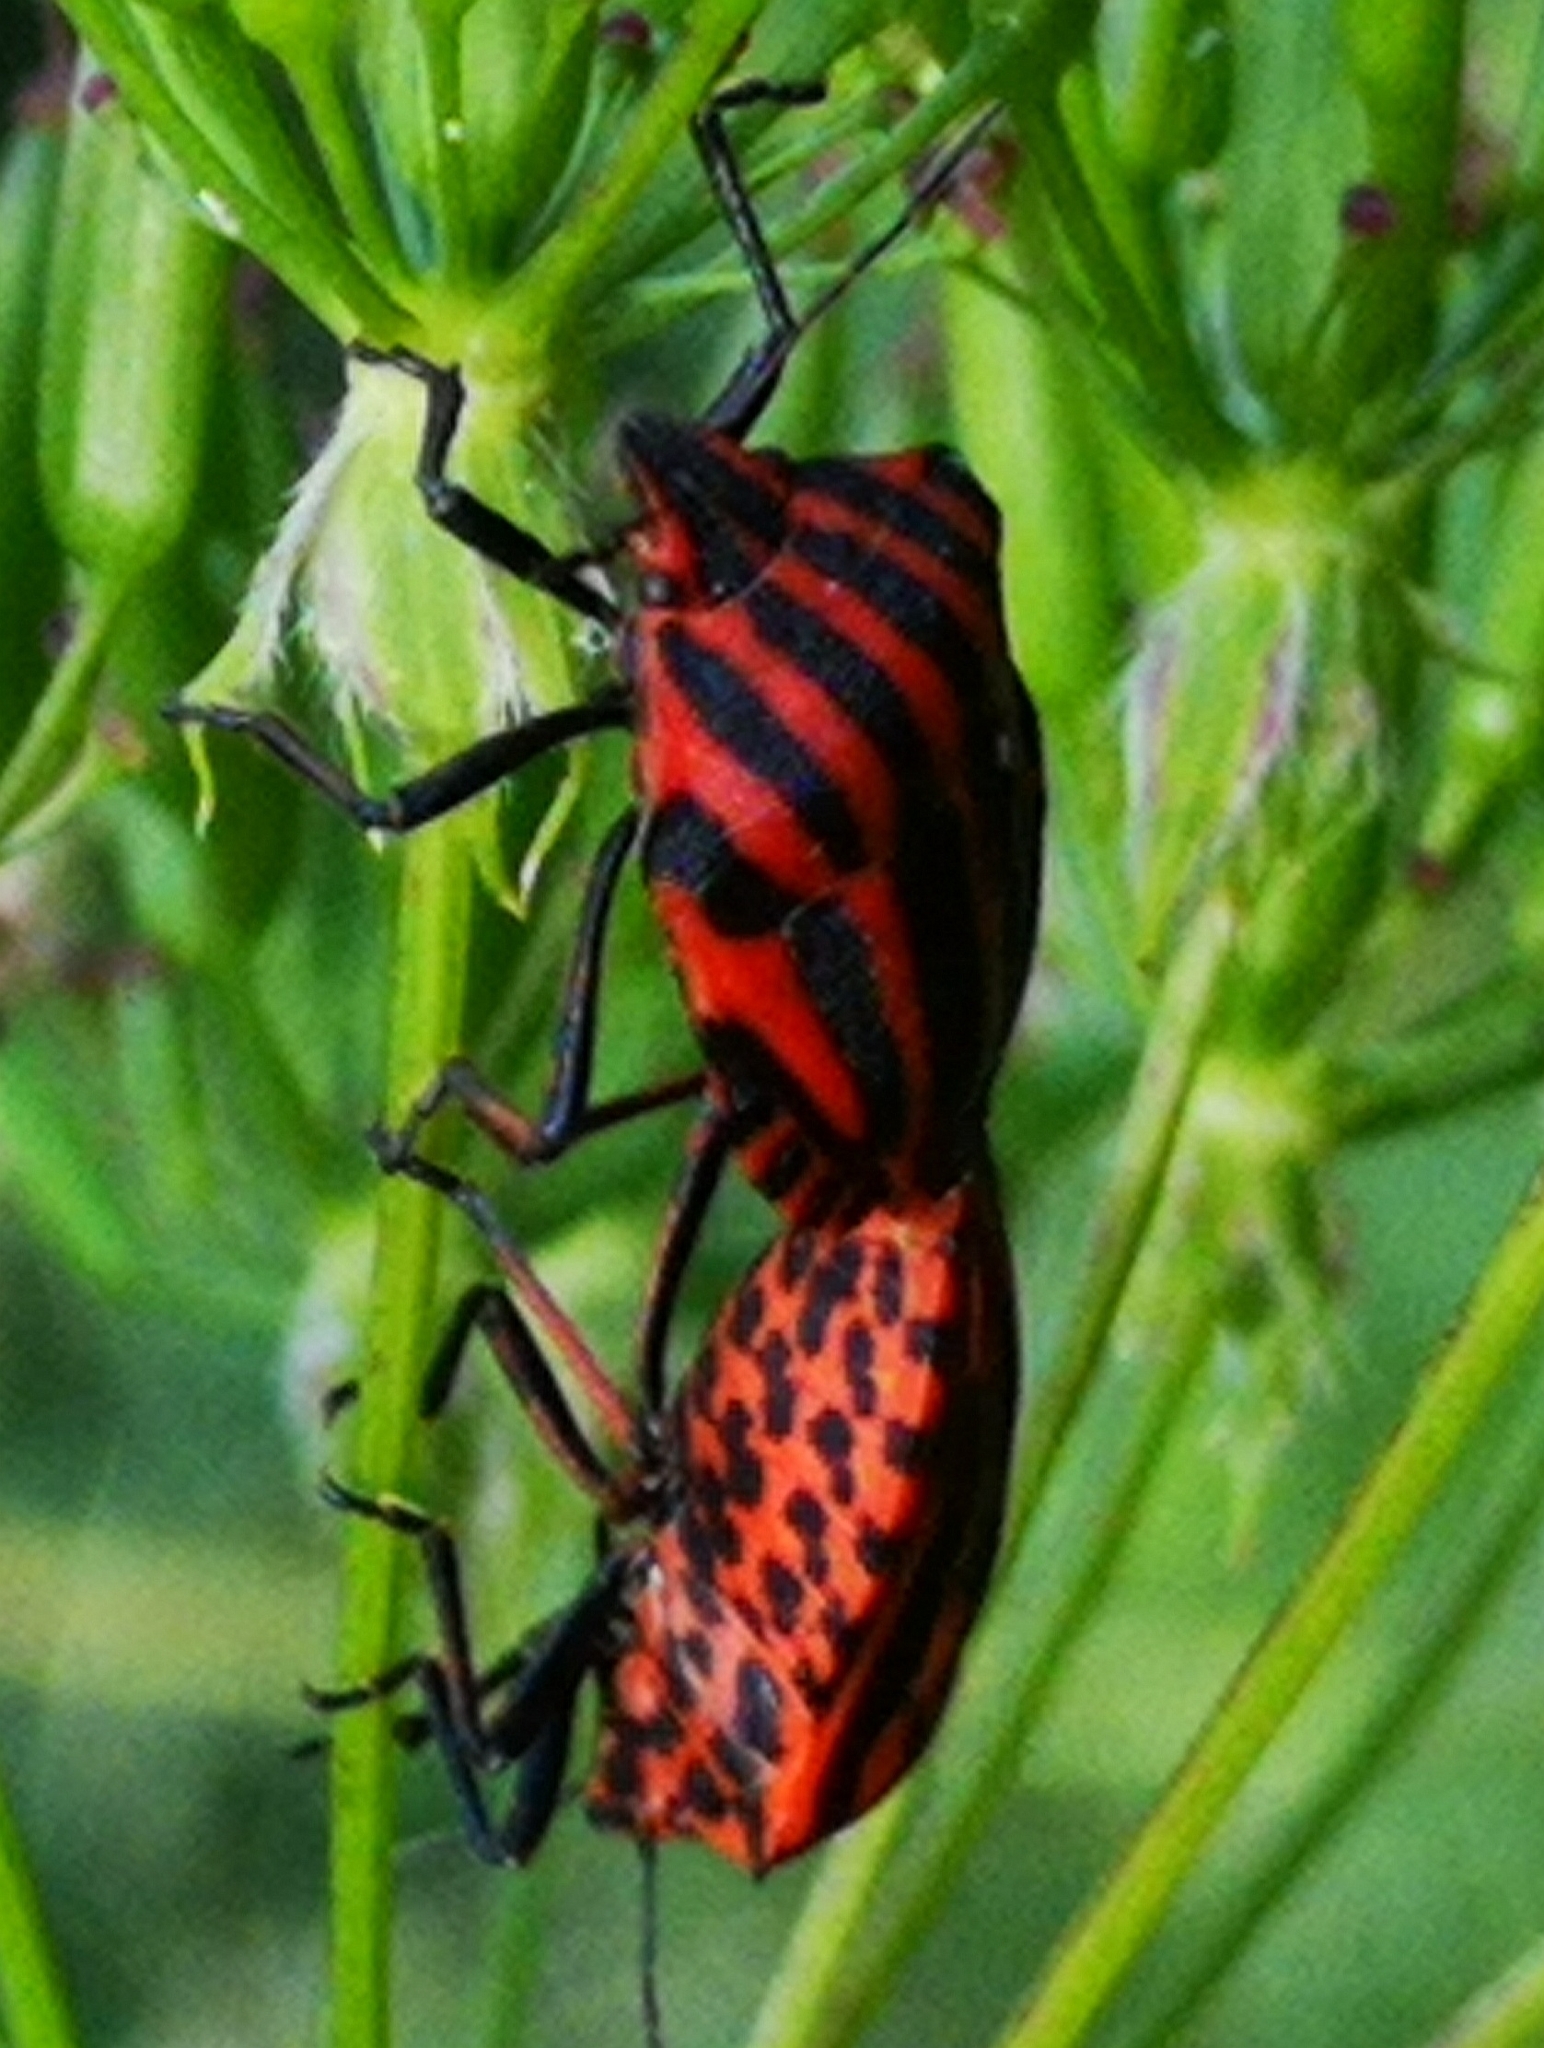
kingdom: Animalia
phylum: Arthropoda
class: Insecta
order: Hemiptera
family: Pentatomidae
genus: Graphosoma
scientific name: Graphosoma italicum
